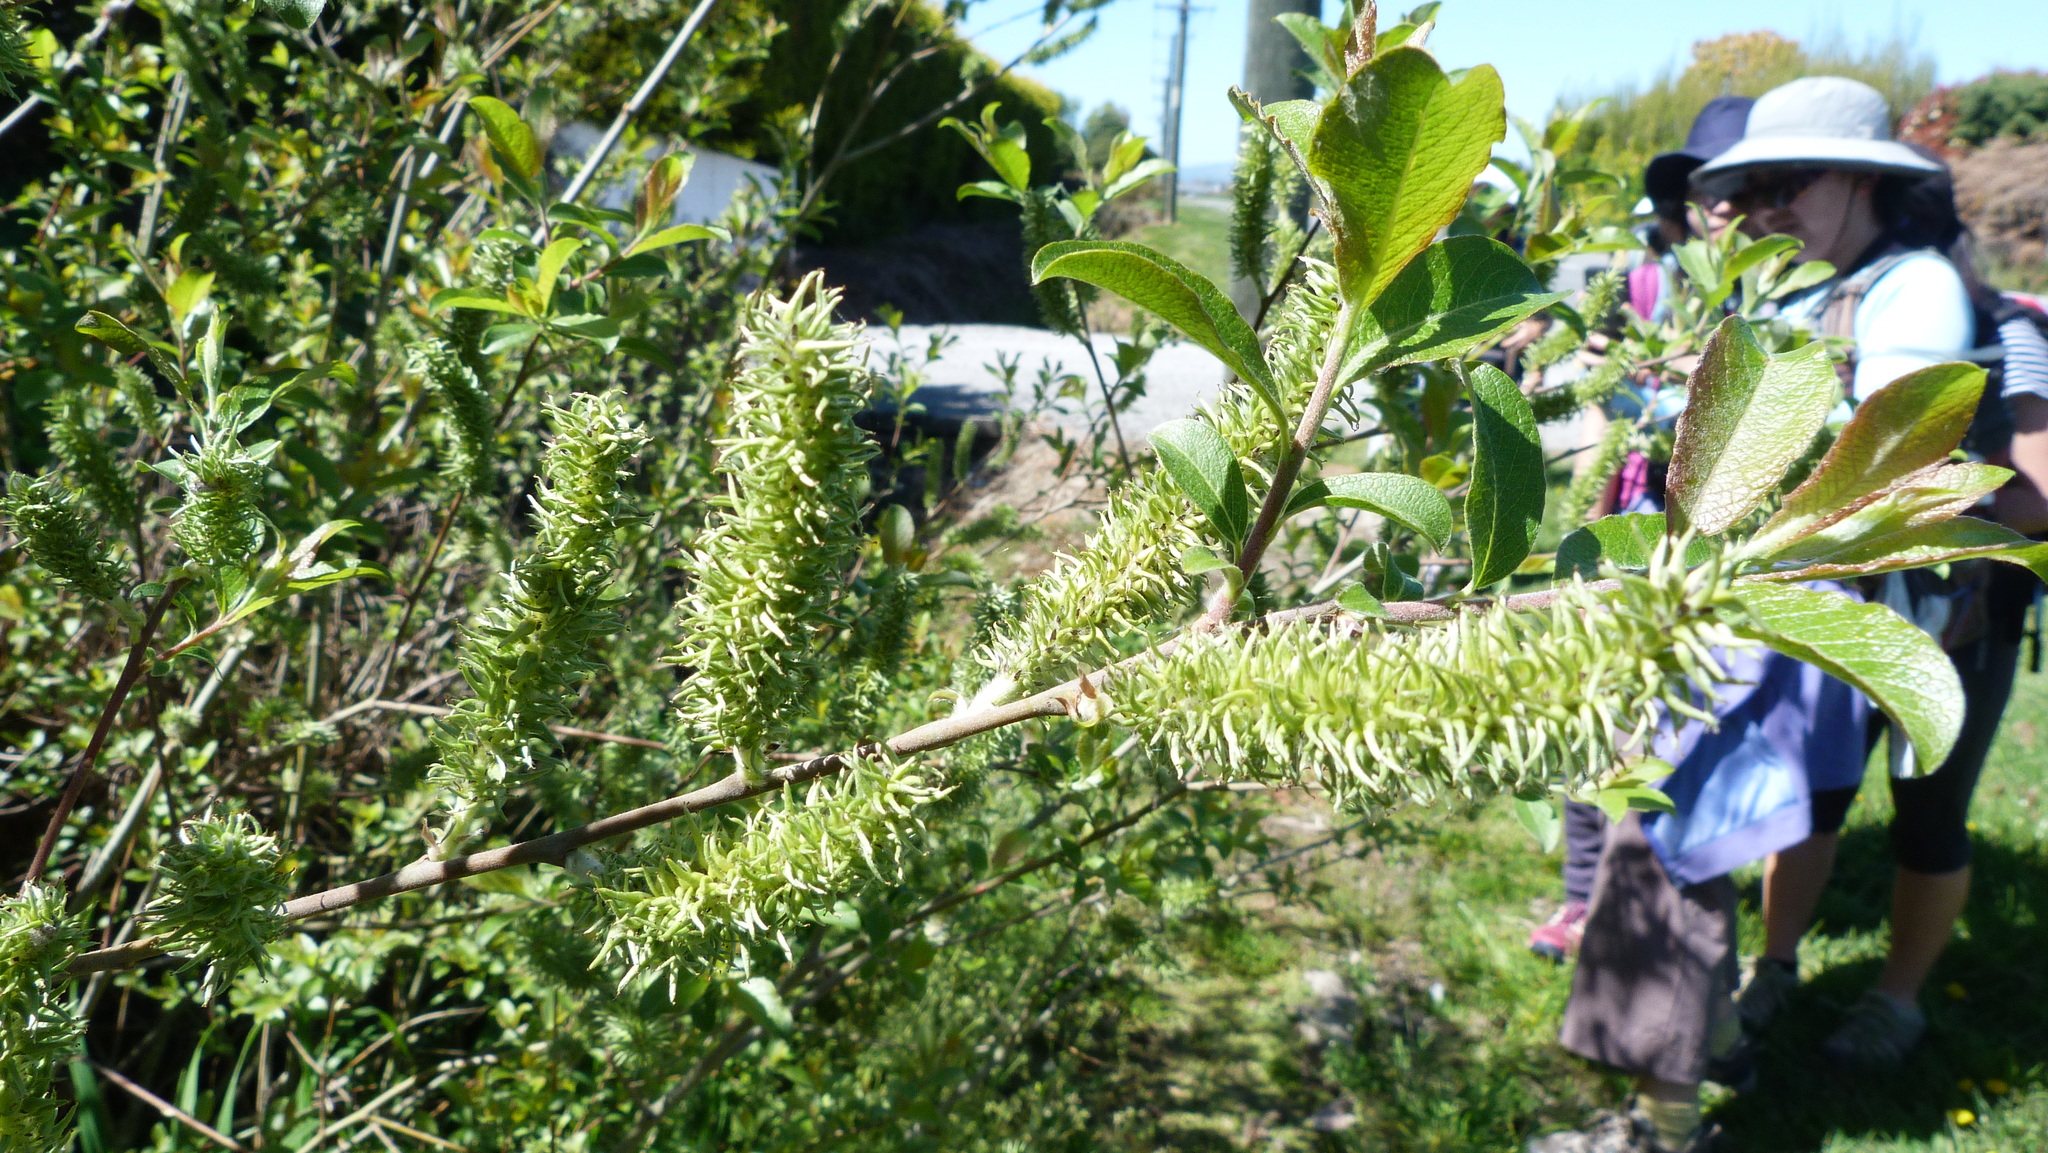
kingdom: Plantae
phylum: Tracheophyta
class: Magnoliopsida
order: Malpighiales
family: Salicaceae
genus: Salix
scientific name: Salix cinerea
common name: Common sallow
